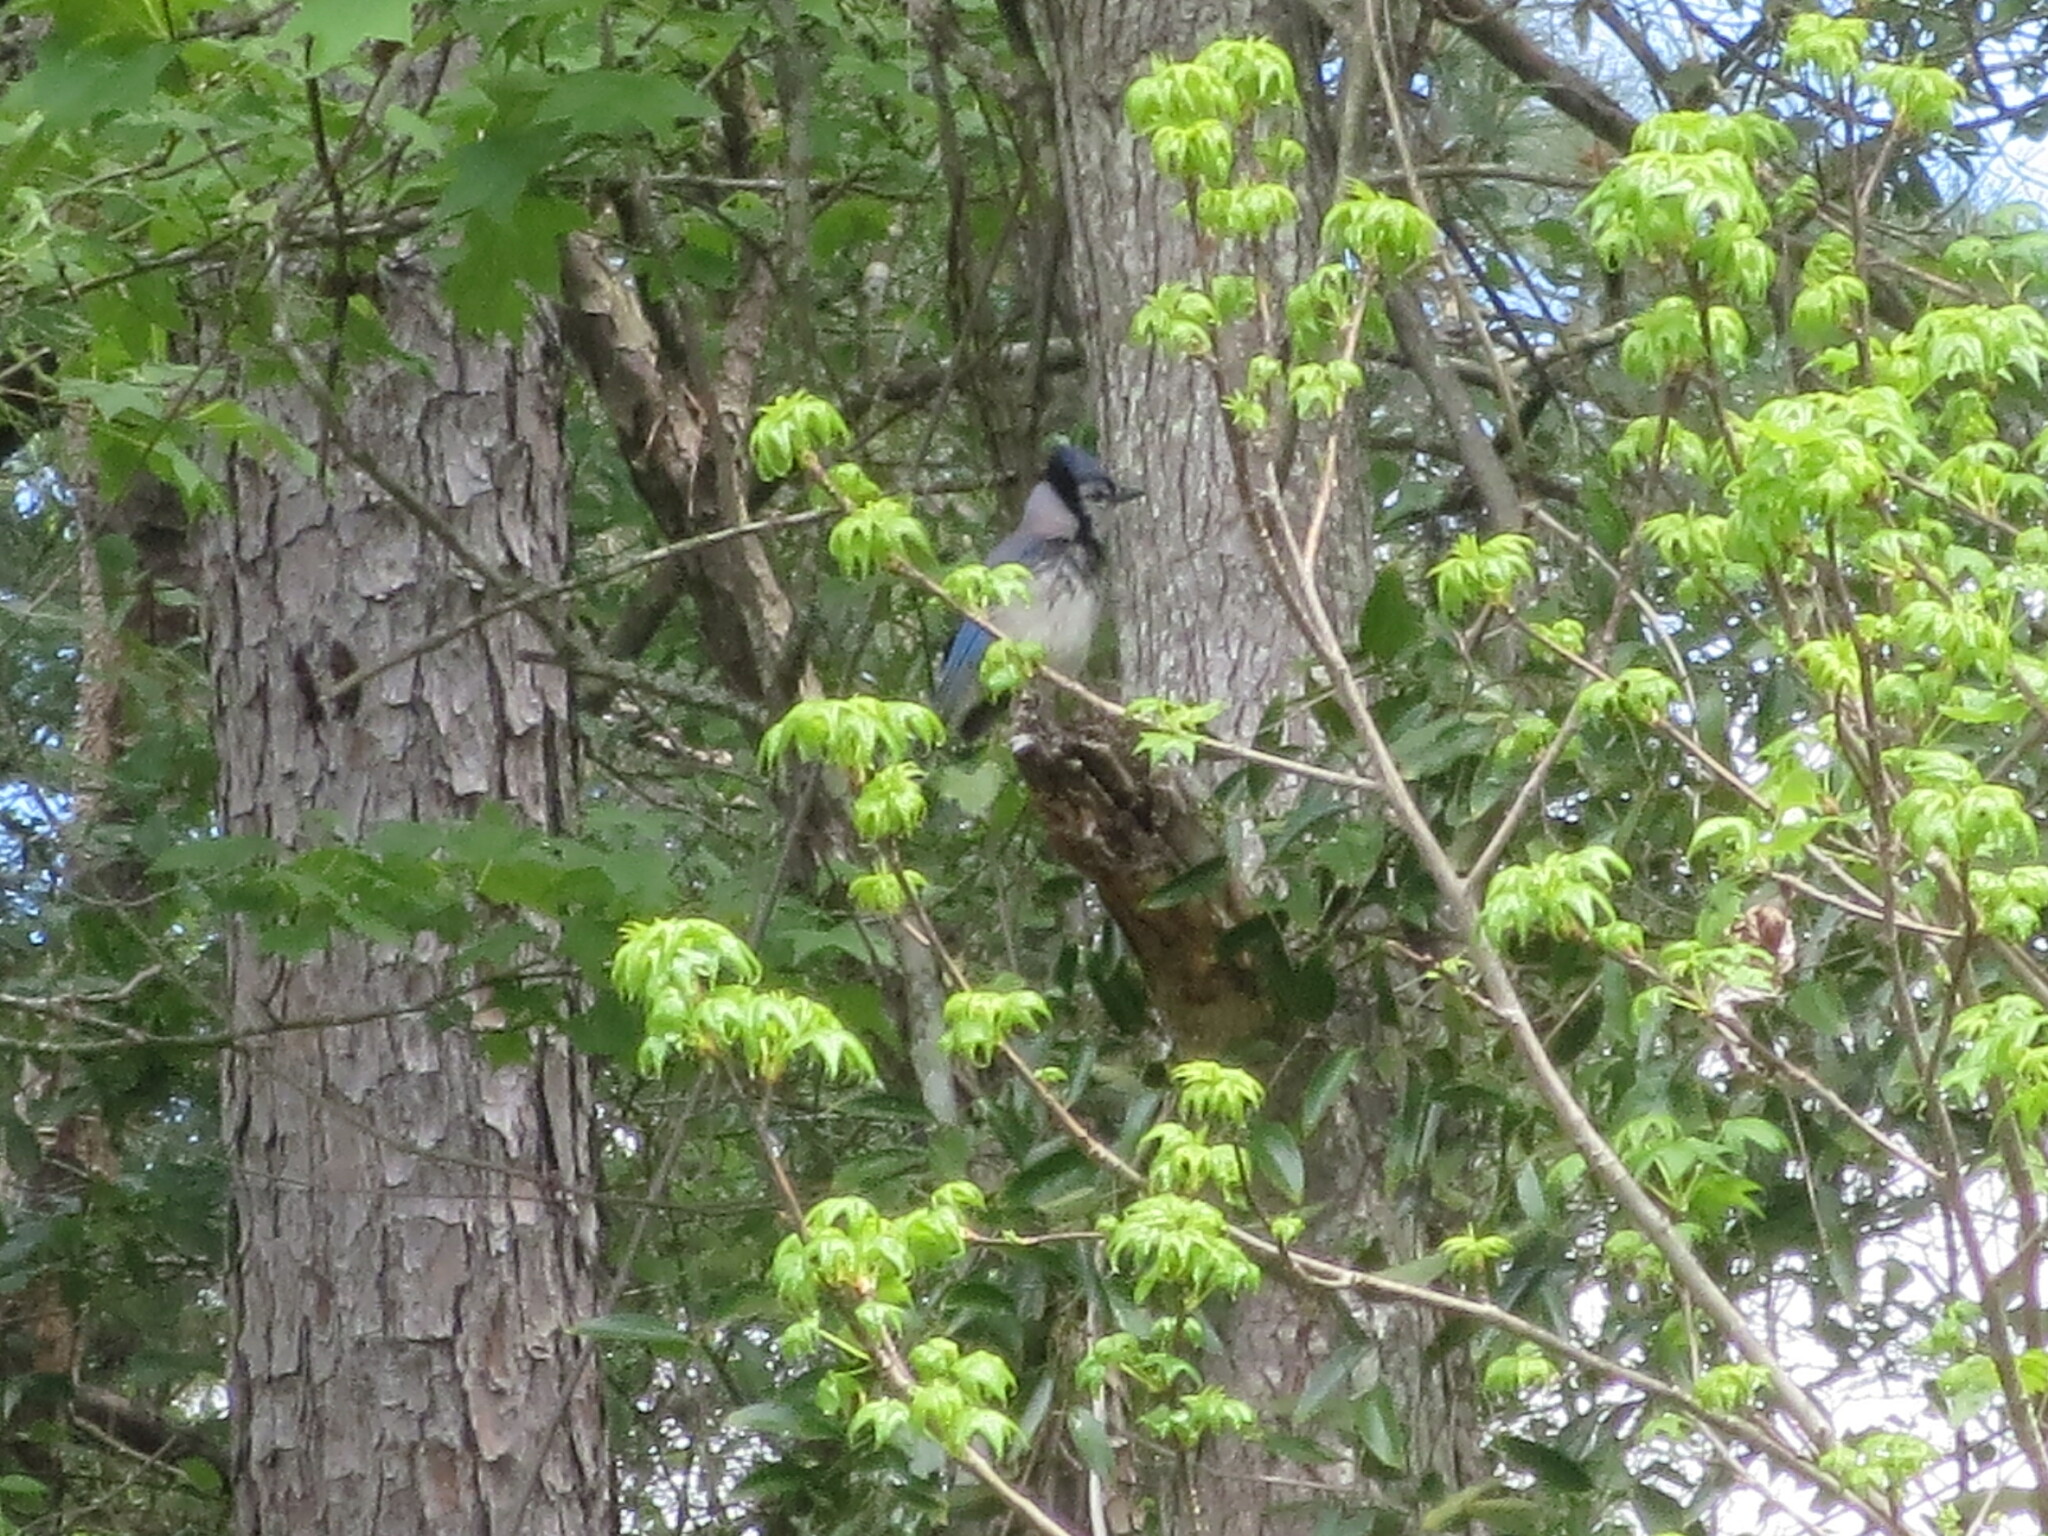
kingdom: Animalia
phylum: Chordata
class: Aves
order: Passeriformes
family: Corvidae
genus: Cyanocitta
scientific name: Cyanocitta cristata
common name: Blue jay
